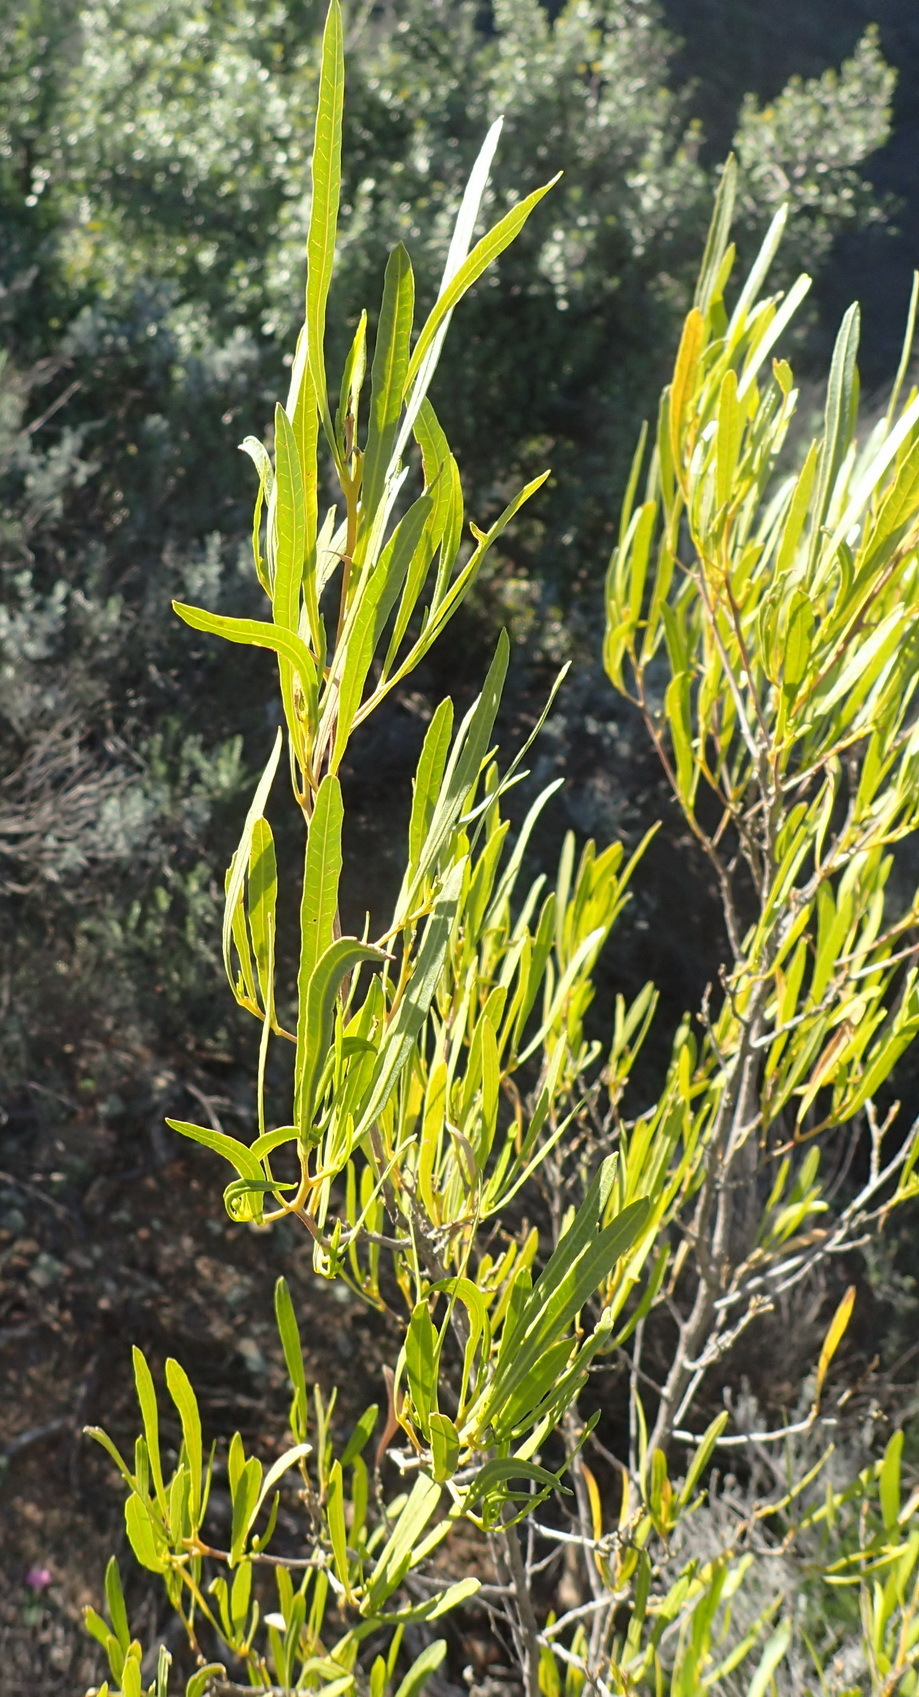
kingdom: Plantae
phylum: Tracheophyta
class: Magnoliopsida
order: Sapindales
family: Sapindaceae
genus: Dodonaea
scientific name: Dodonaea viscosa
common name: Hopbush
